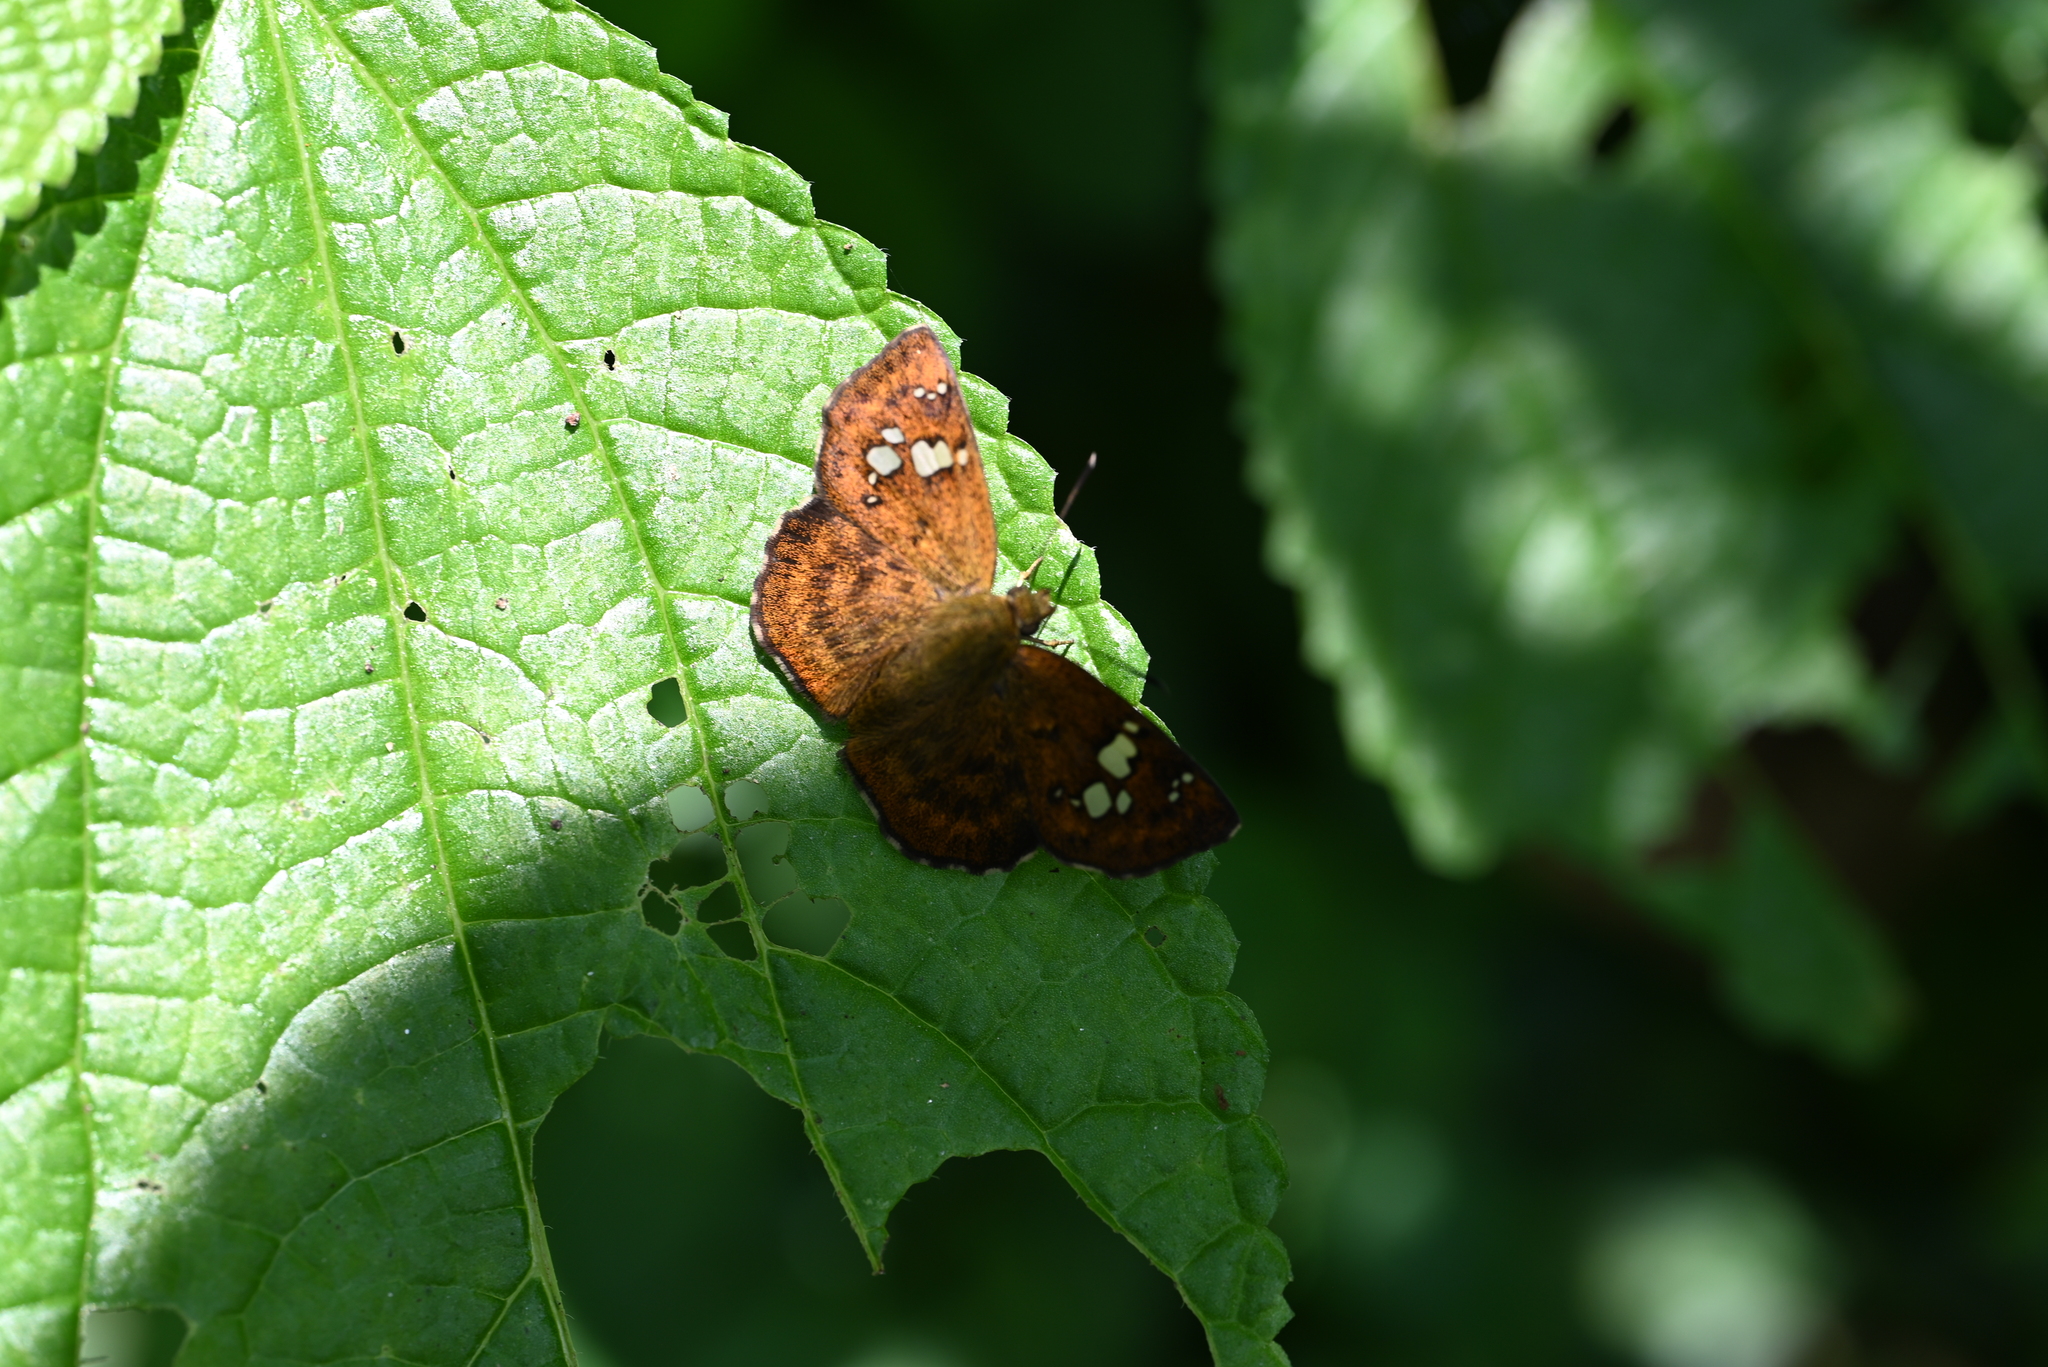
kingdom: Animalia
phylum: Arthropoda
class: Insecta
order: Lepidoptera
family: Hesperiidae
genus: Pseudocoladenia
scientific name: Pseudocoladenia dan
